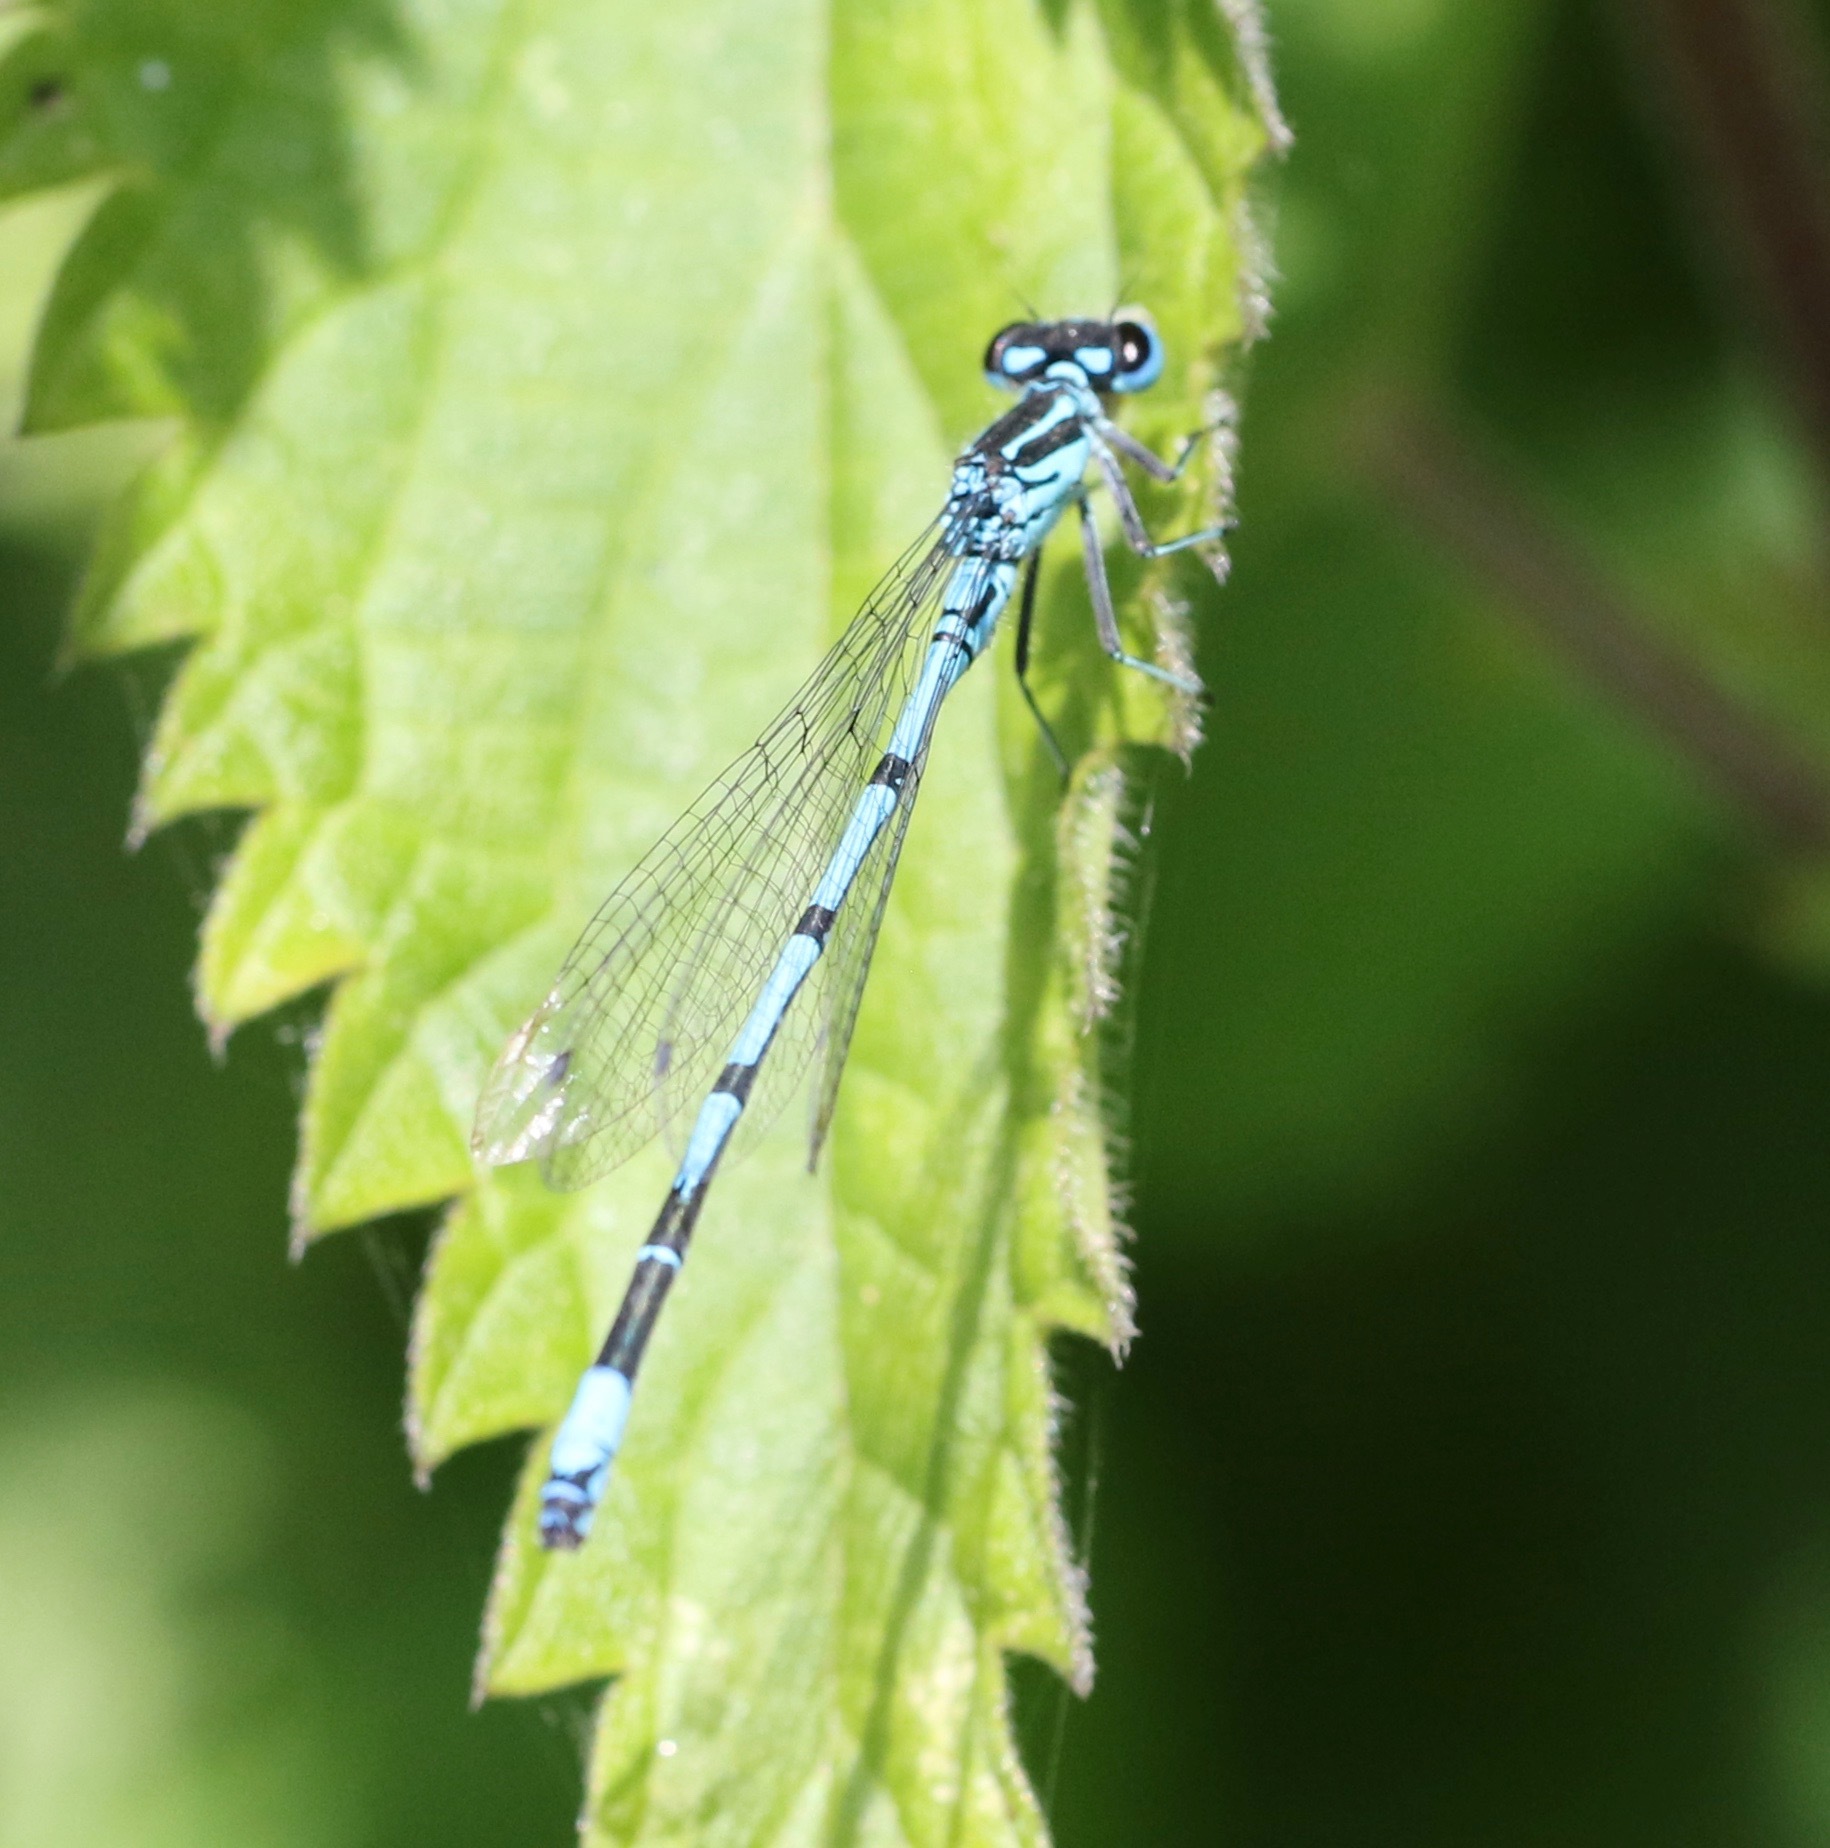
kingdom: Animalia
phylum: Arthropoda
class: Insecta
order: Odonata
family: Coenagrionidae
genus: Coenagrion
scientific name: Coenagrion puella
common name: Azure damselfly
